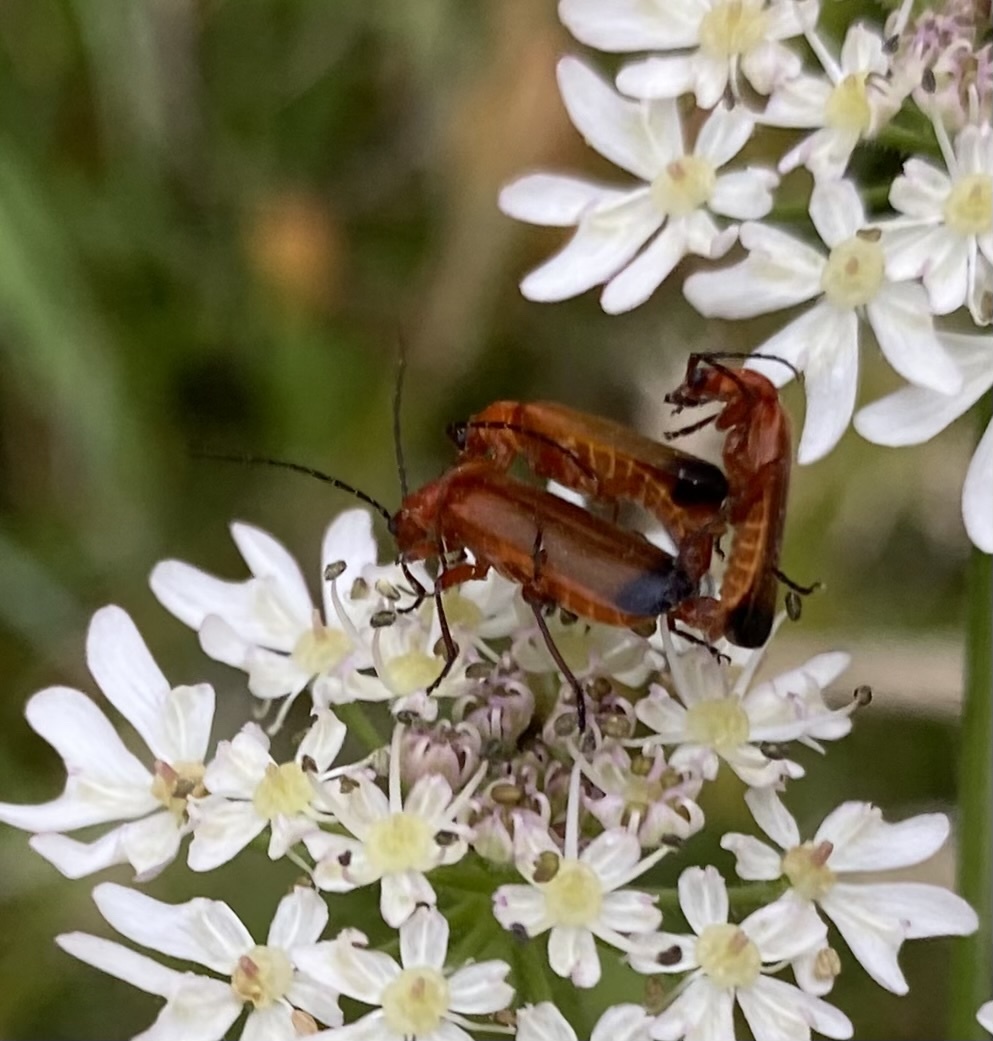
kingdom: Animalia
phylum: Arthropoda
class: Insecta
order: Coleoptera
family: Cantharidae
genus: Rhagonycha
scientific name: Rhagonycha fulva
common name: Common red soldier beetle
